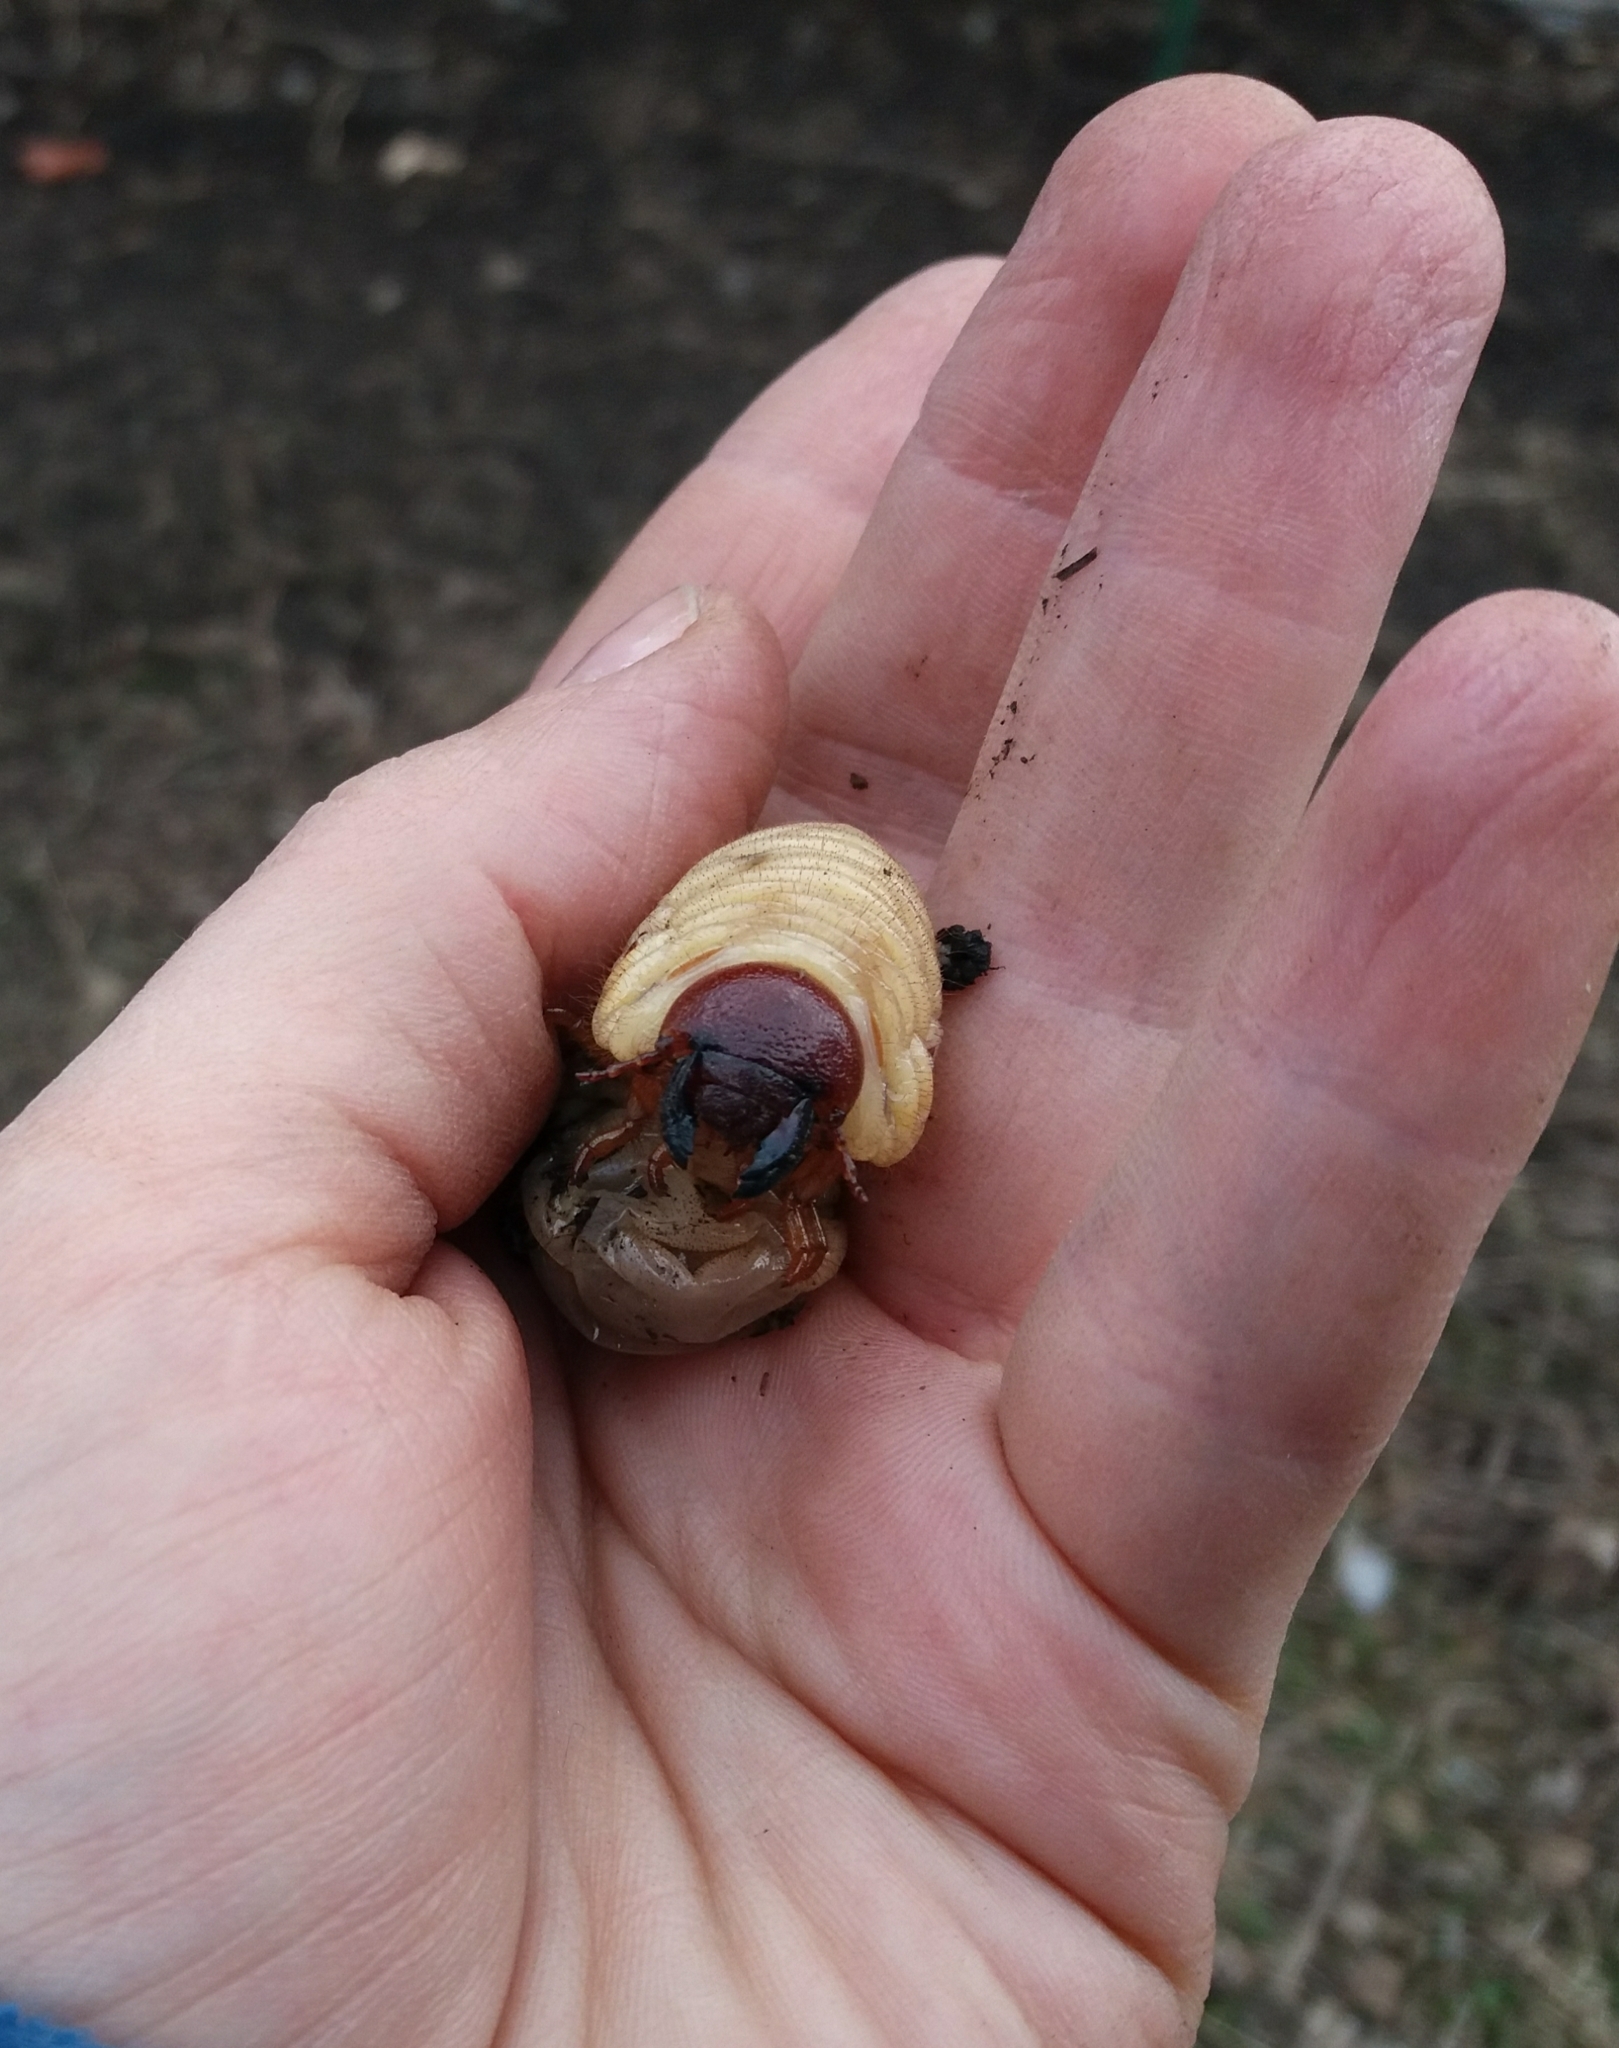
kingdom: Animalia
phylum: Arthropoda
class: Insecta
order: Coleoptera
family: Scarabaeidae
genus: Oryctes
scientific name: Oryctes nasicornis
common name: European rhinoceros beetle
